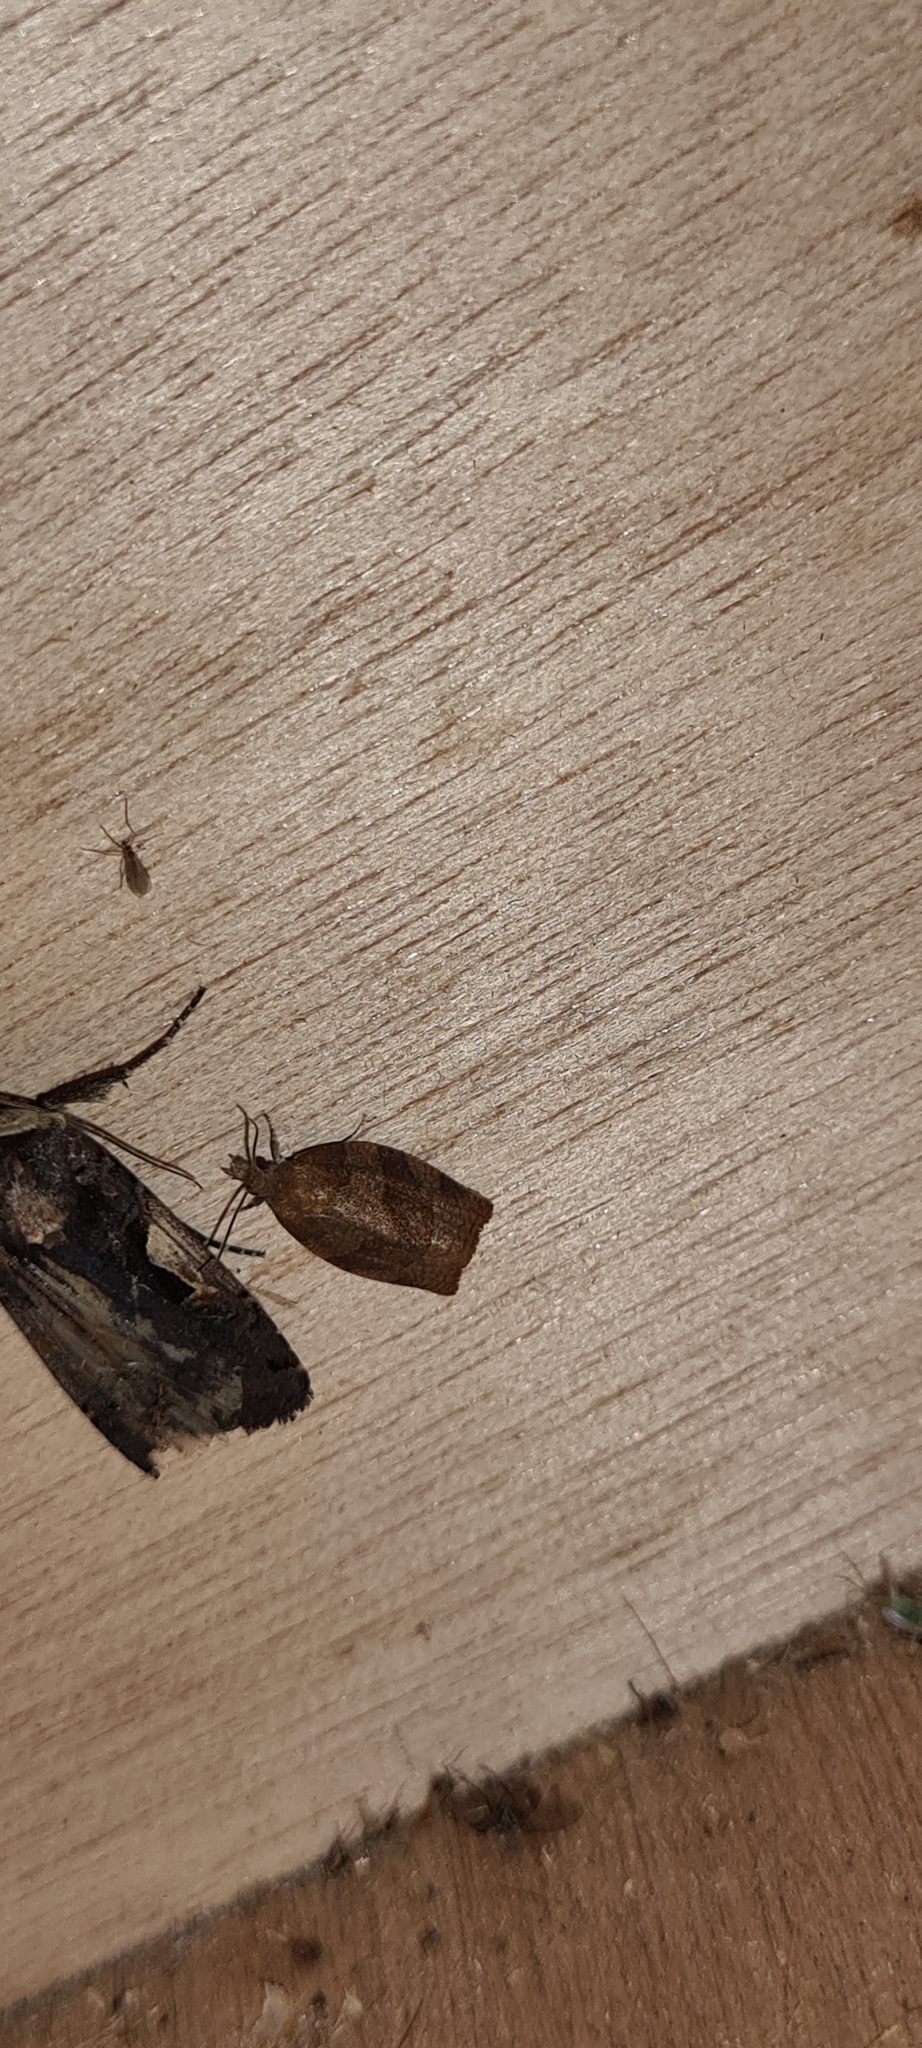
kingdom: Animalia
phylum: Arthropoda
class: Insecta
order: Lepidoptera
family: Tortricidae
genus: Pandemis
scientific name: Pandemis heparana
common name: Dark fruit-tree tortrix
